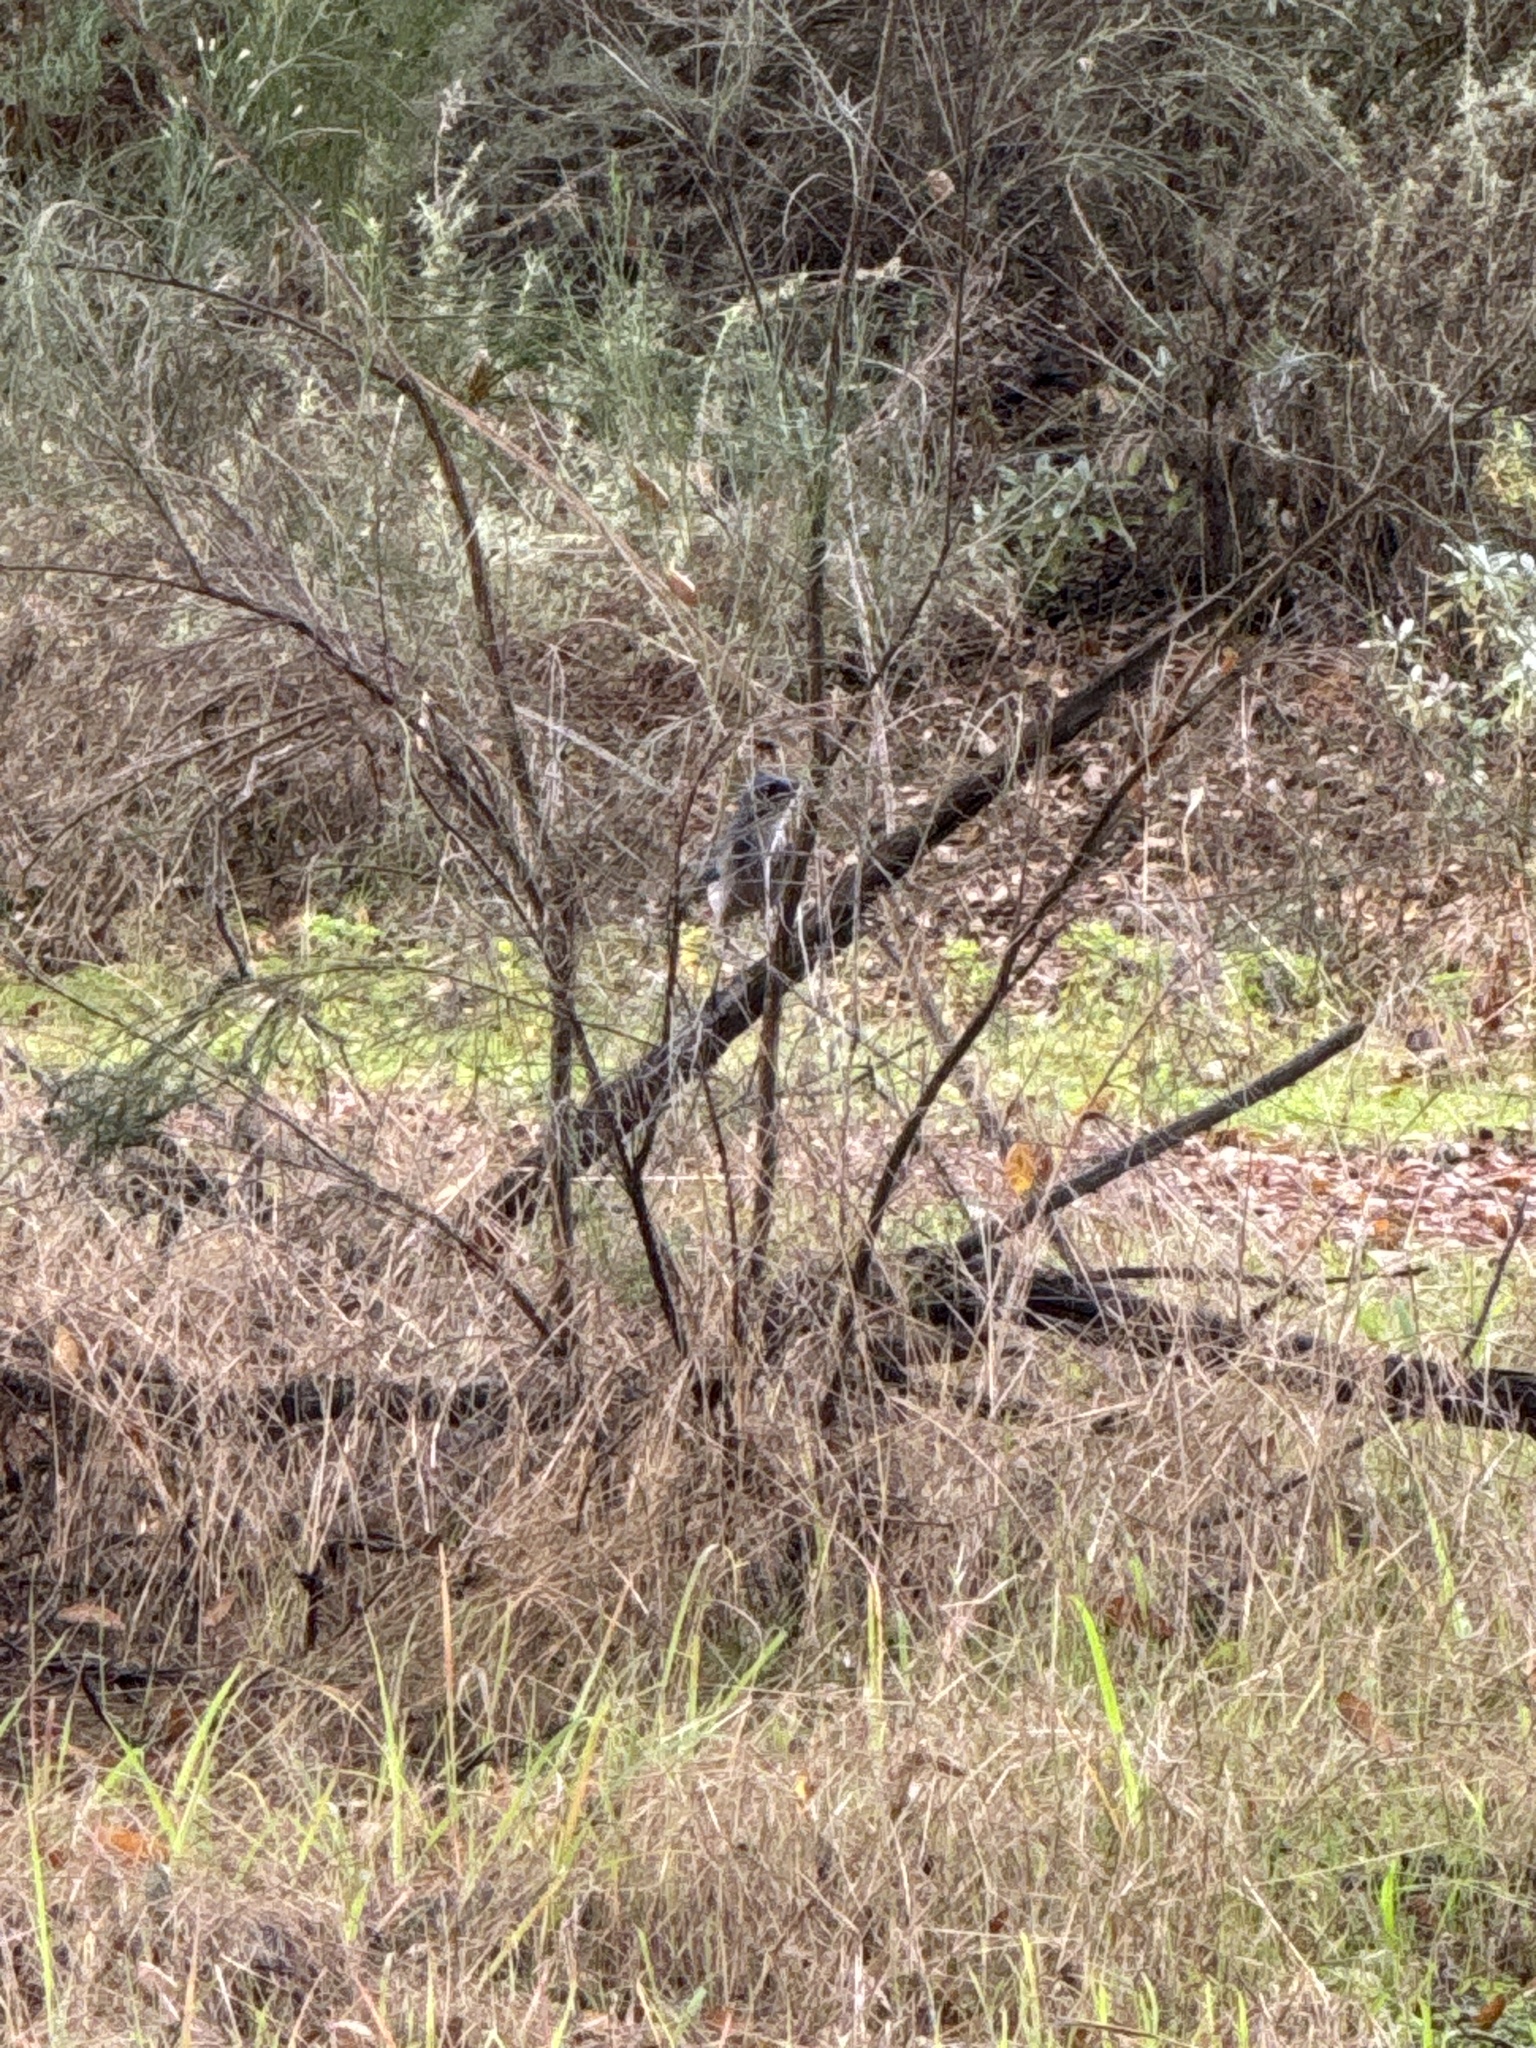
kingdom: Animalia
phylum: Chordata
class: Aves
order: Passeriformes
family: Corvidae
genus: Aphelocoma
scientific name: Aphelocoma californica
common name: California scrub-jay
